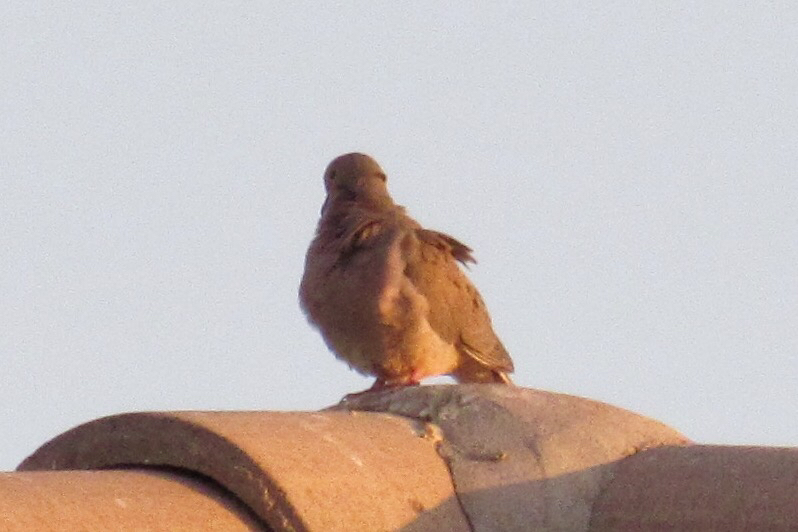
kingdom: Animalia
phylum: Chordata
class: Aves
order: Columbiformes
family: Columbidae
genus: Zenaida
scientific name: Zenaida macroura
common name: Mourning dove
